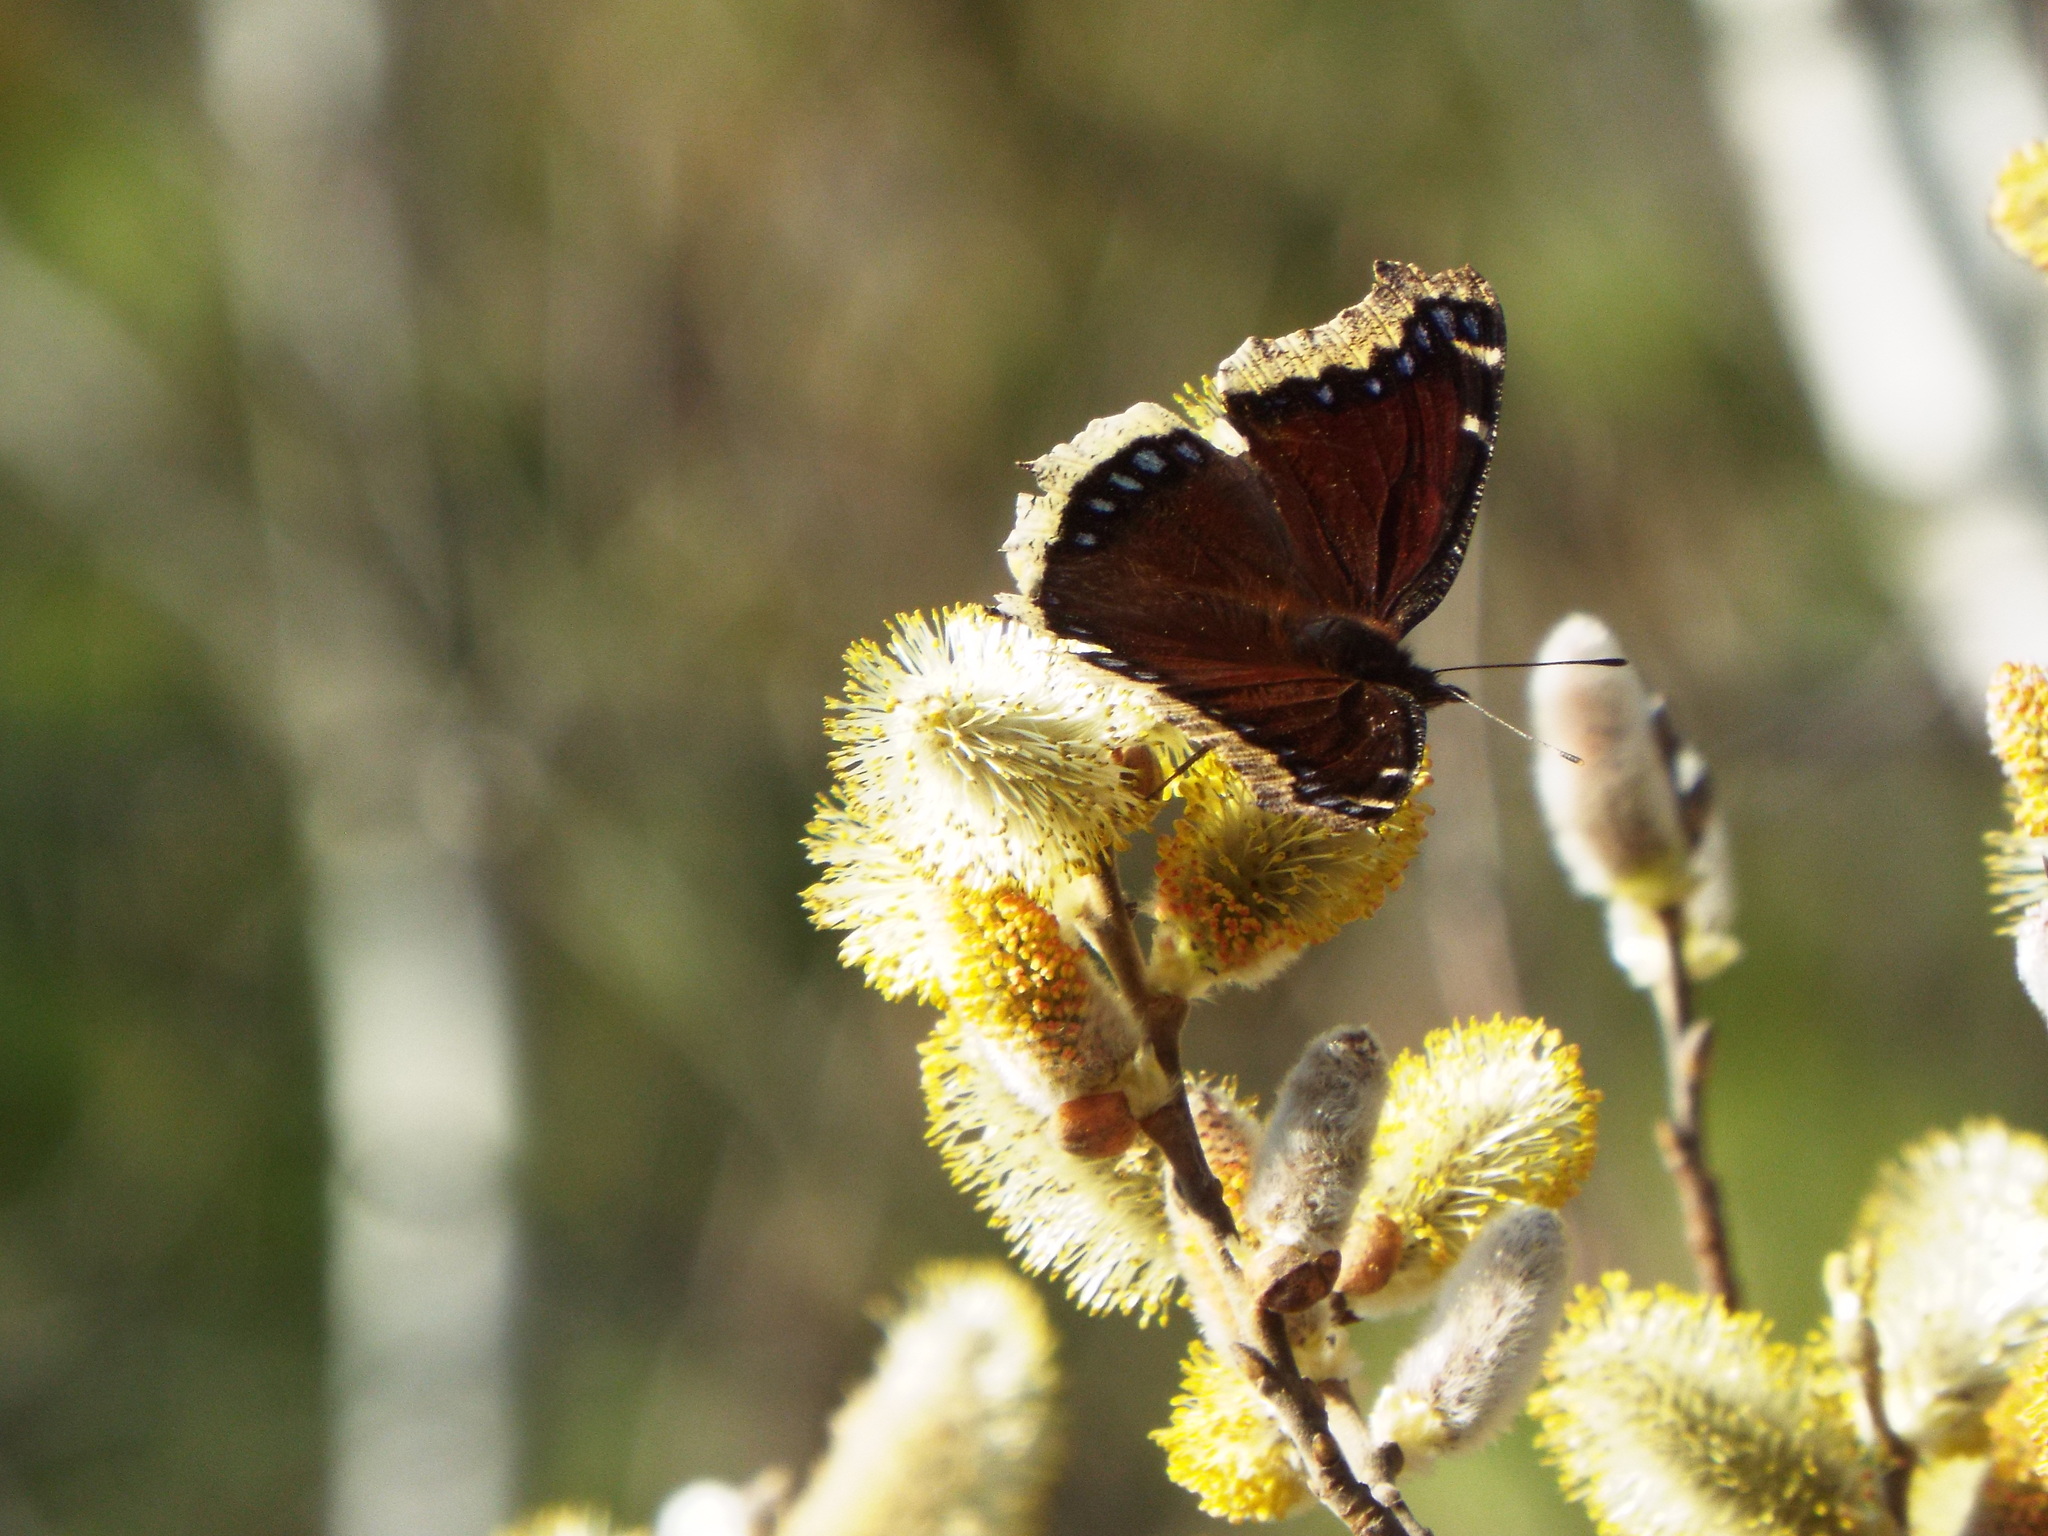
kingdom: Animalia
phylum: Arthropoda
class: Insecta
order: Lepidoptera
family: Nymphalidae
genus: Nymphalis
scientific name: Nymphalis antiopa
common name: Camberwell beauty
